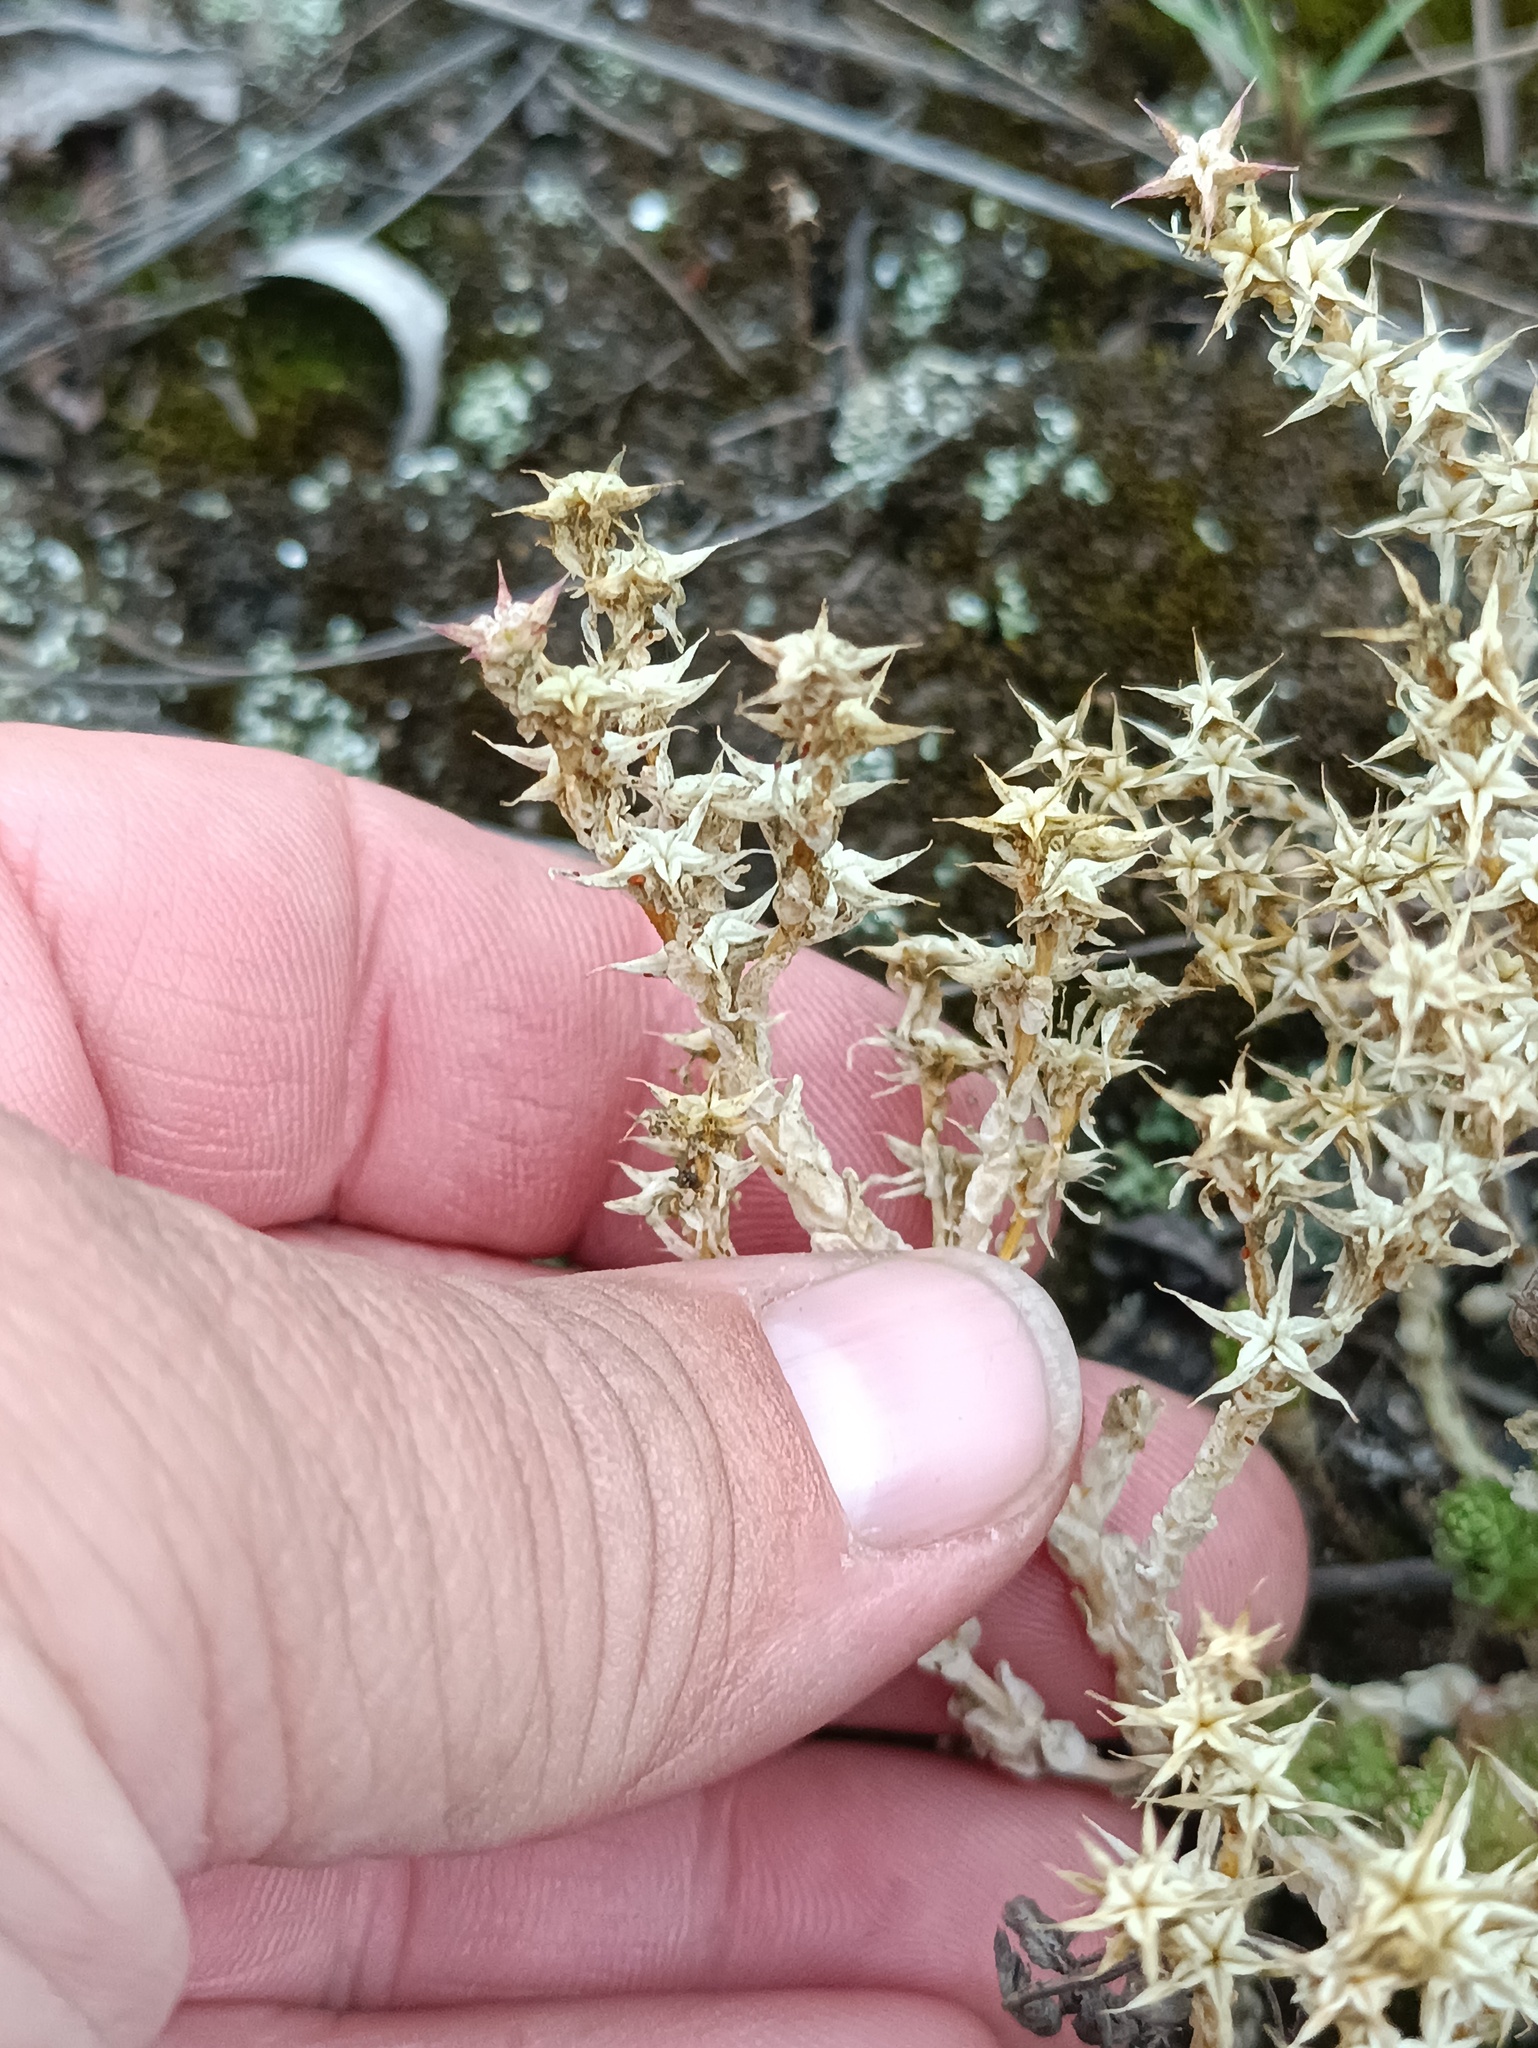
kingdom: Plantae
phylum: Tracheophyta
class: Magnoliopsida
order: Saxifragales
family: Crassulaceae
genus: Sedum
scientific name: Sedum acre
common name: Biting stonecrop
